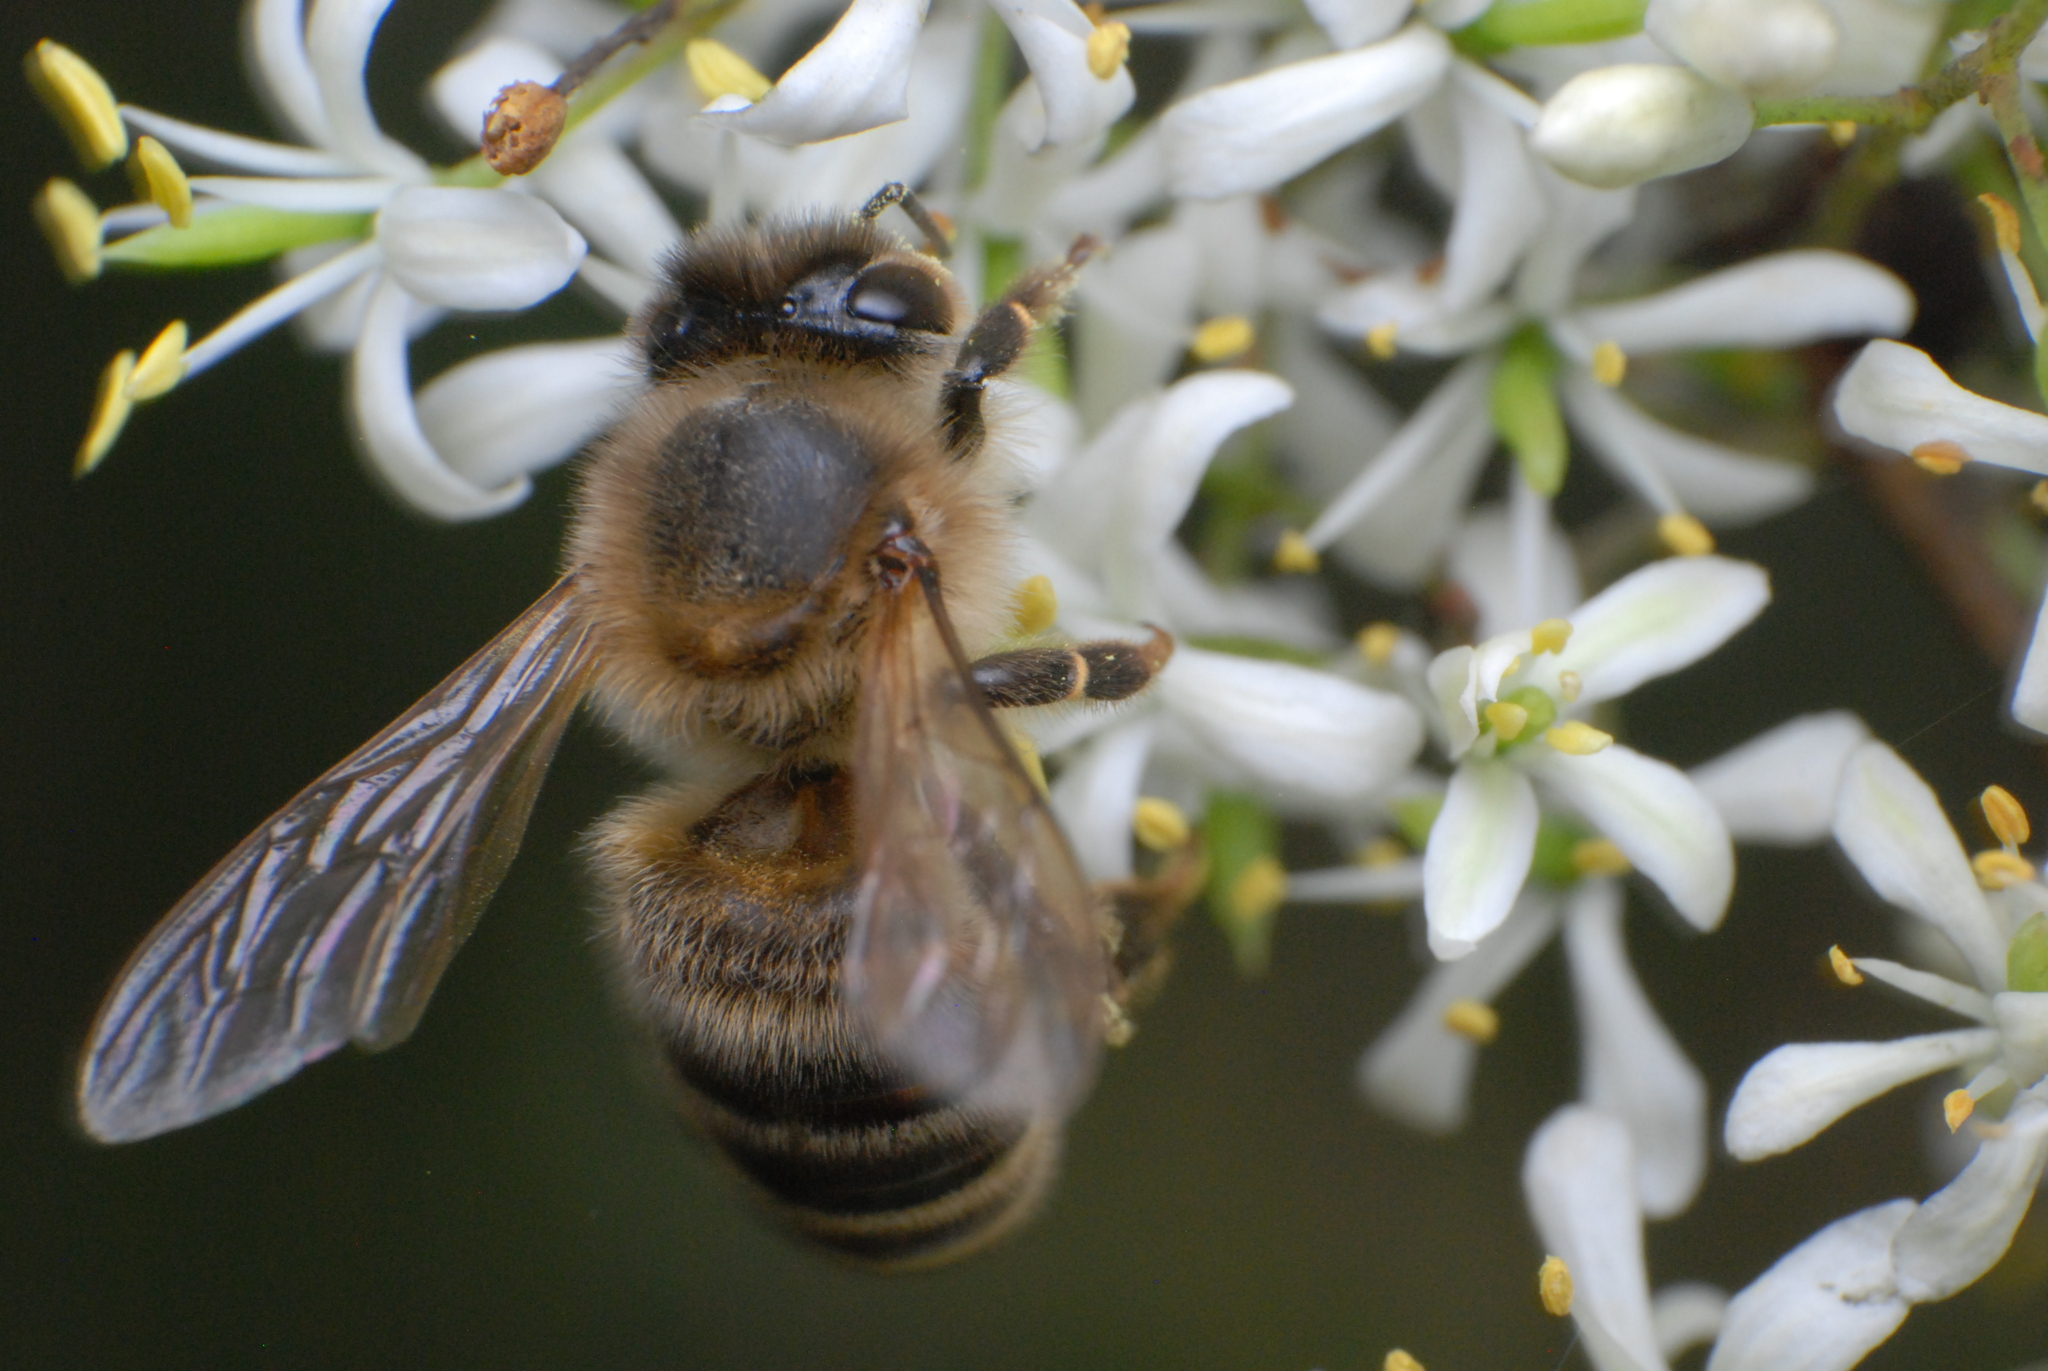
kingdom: Animalia
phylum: Arthropoda
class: Insecta
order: Hymenoptera
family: Apidae
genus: Apis
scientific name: Apis mellifera
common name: Honey bee
